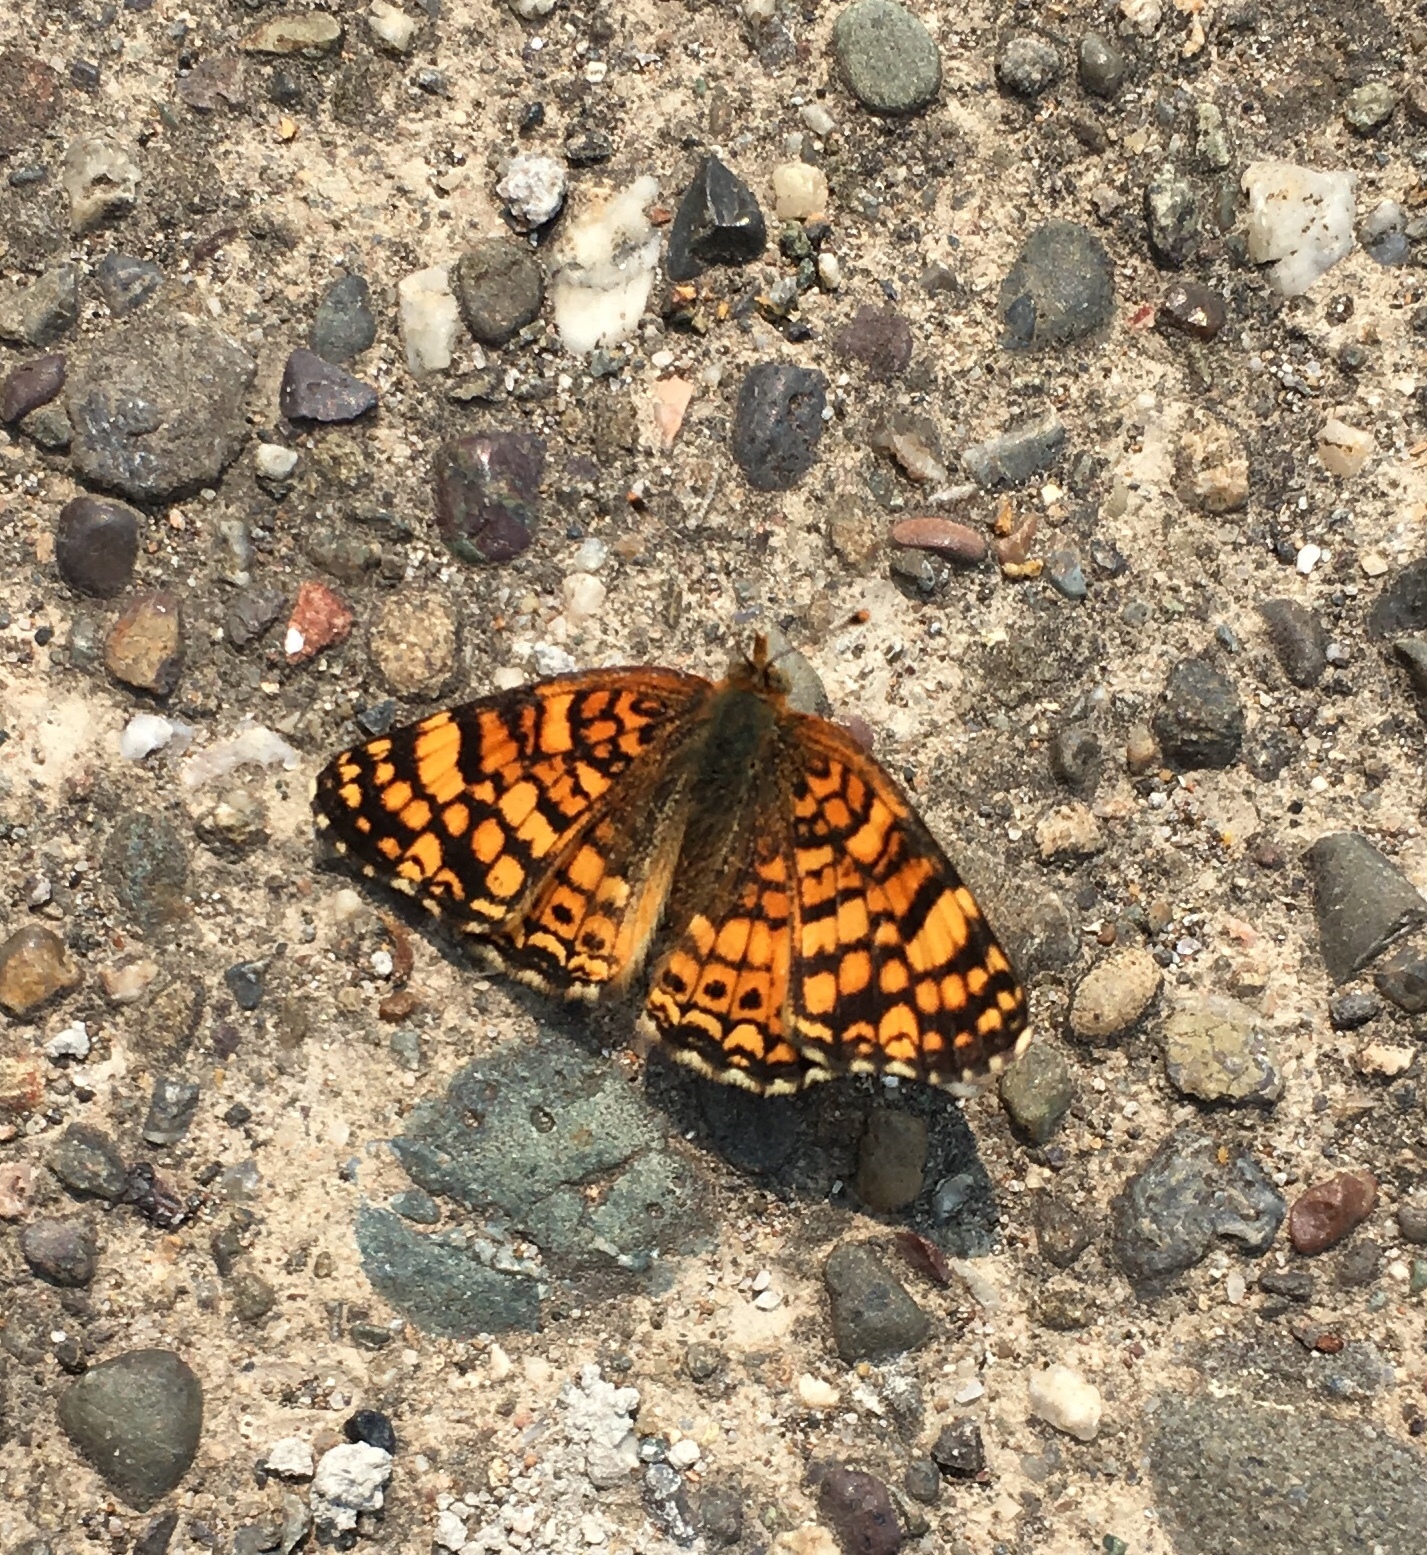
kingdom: Animalia
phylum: Arthropoda
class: Insecta
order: Lepidoptera
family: Nymphalidae
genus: Eresia
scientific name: Eresia aveyrona
